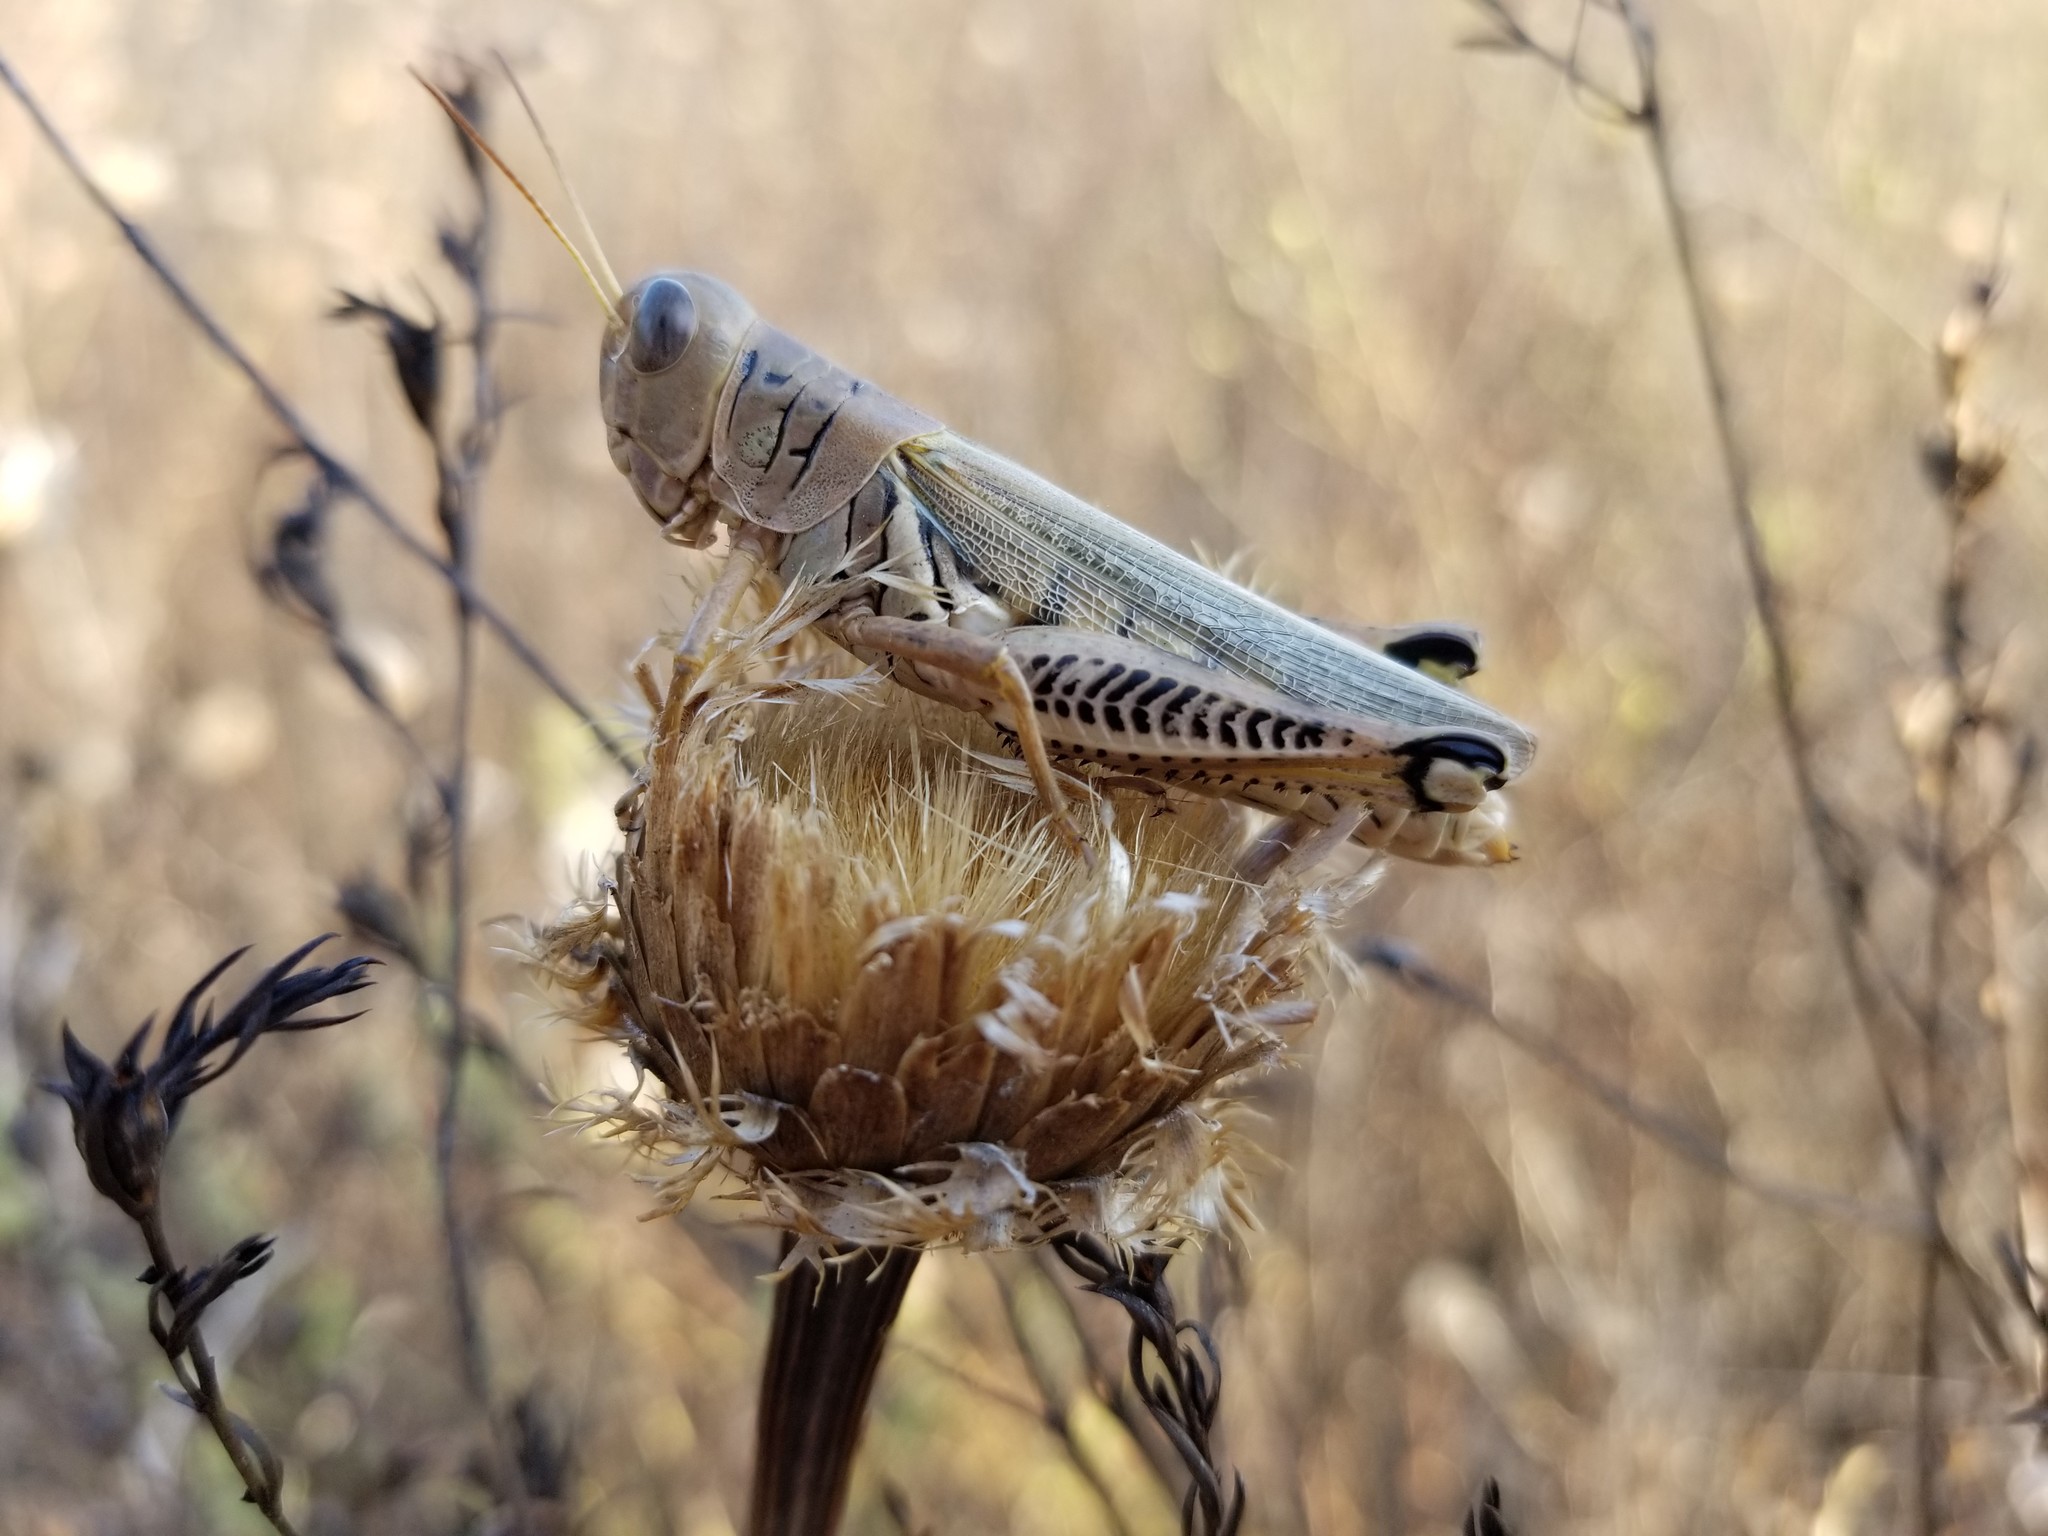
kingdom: Animalia
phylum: Arthropoda
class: Insecta
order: Orthoptera
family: Acrididae
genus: Melanoplus
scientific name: Melanoplus differentialis
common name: Differential grasshopper
